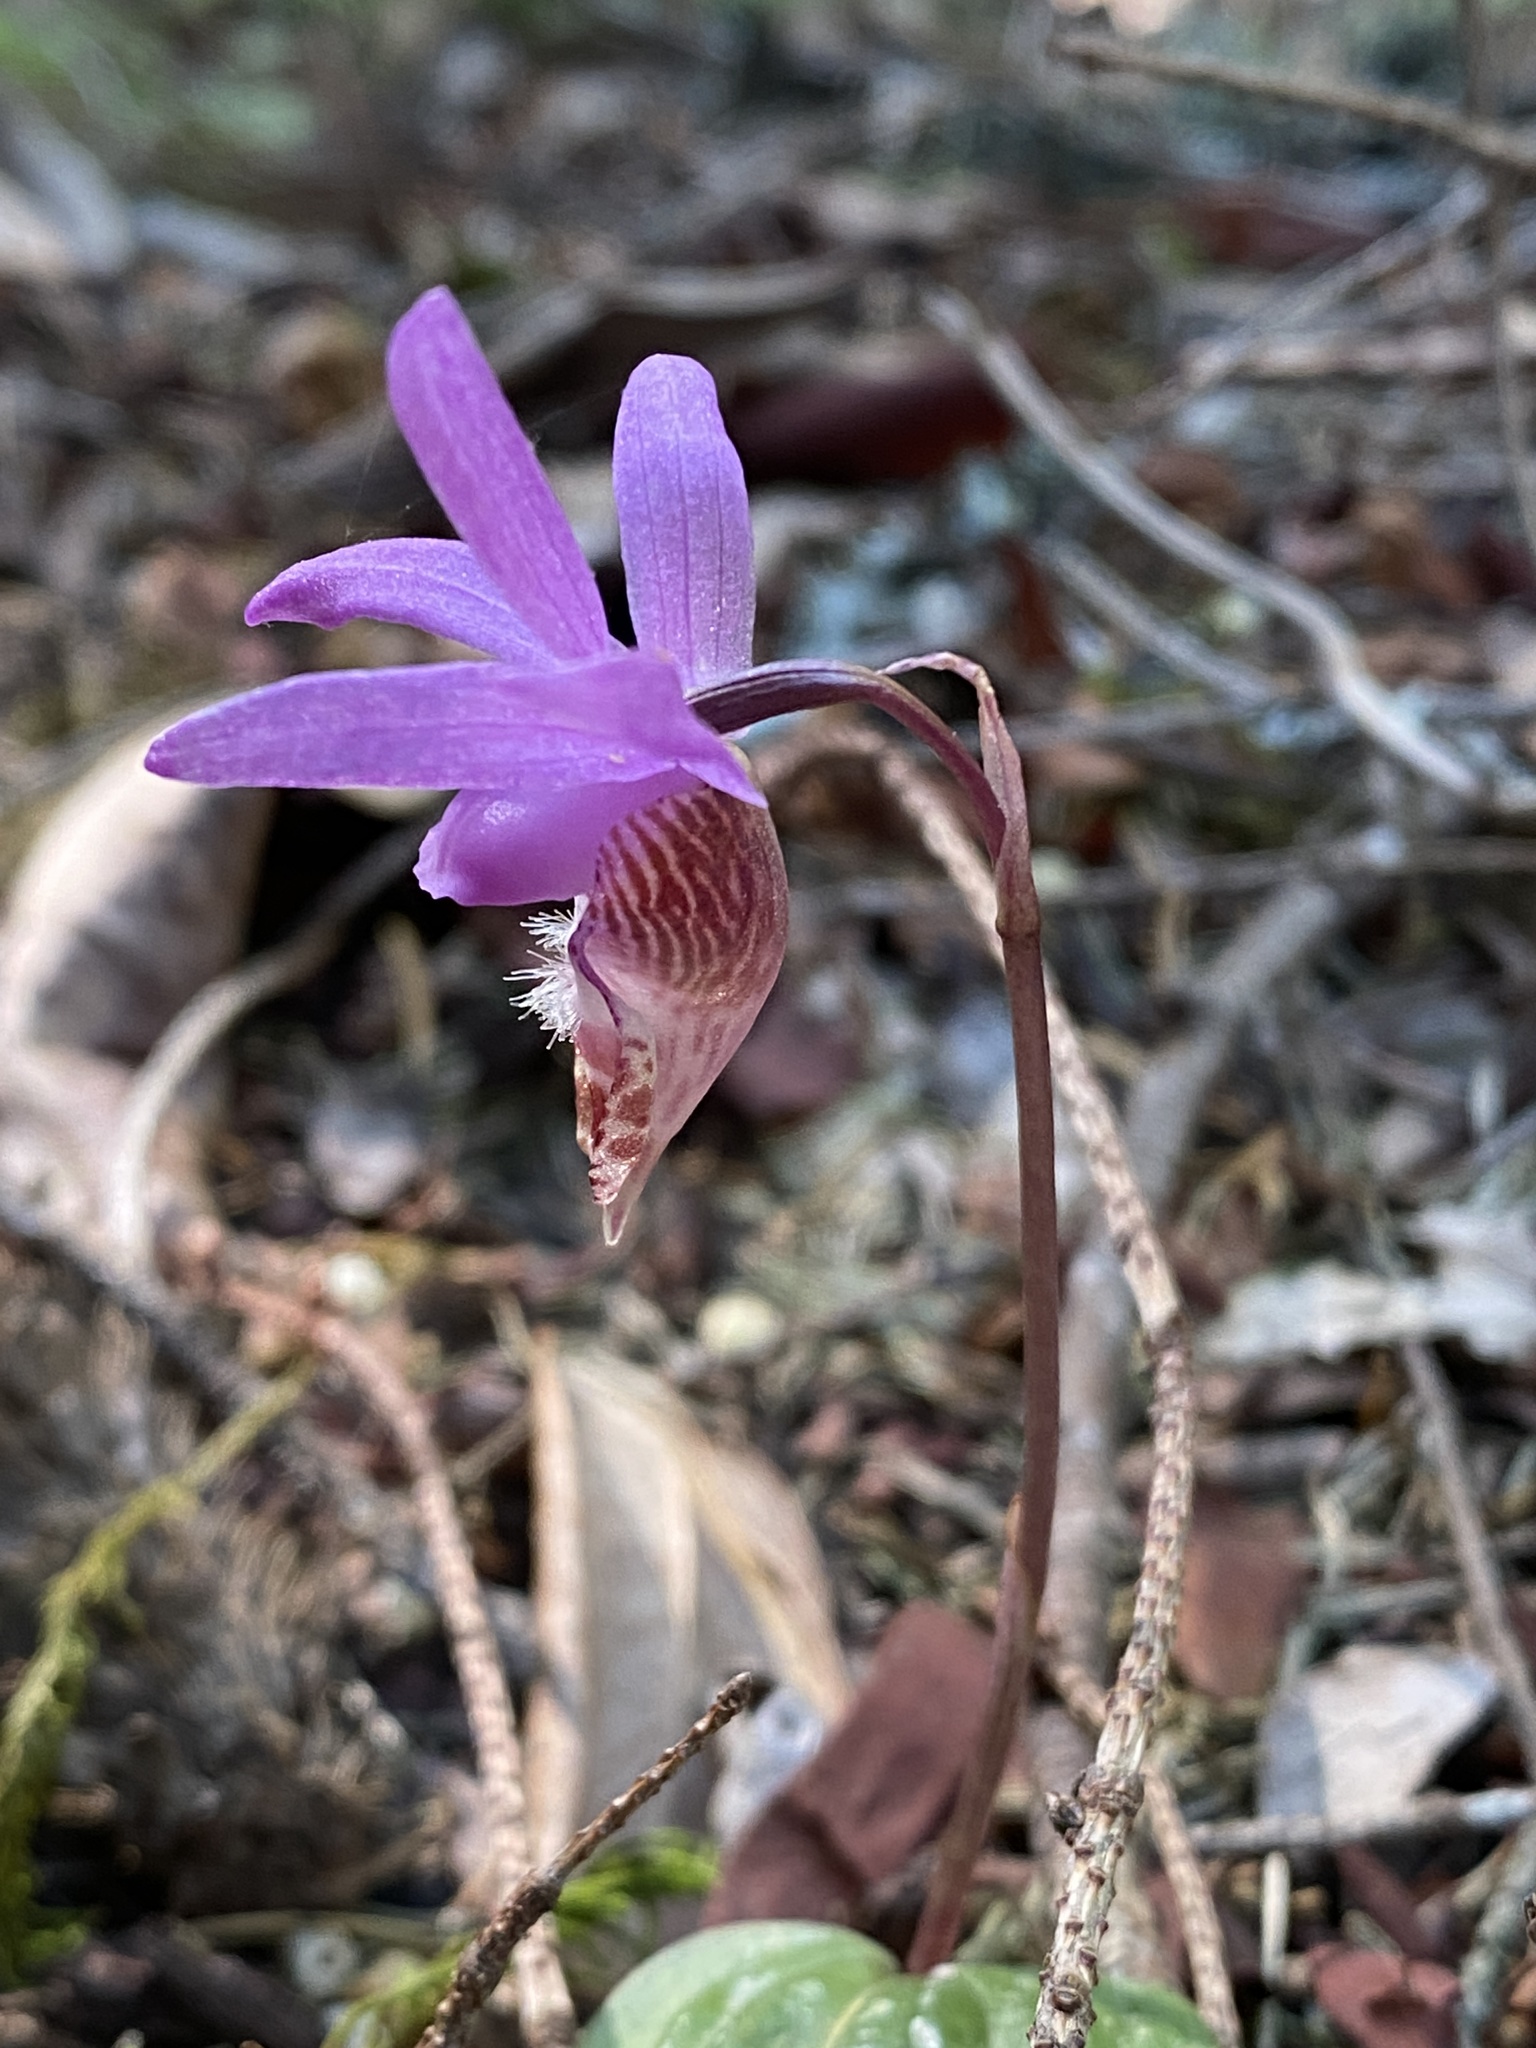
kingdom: Plantae
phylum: Tracheophyta
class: Liliopsida
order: Asparagales
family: Orchidaceae
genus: Calypso
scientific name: Calypso bulbosa
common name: Calypso
